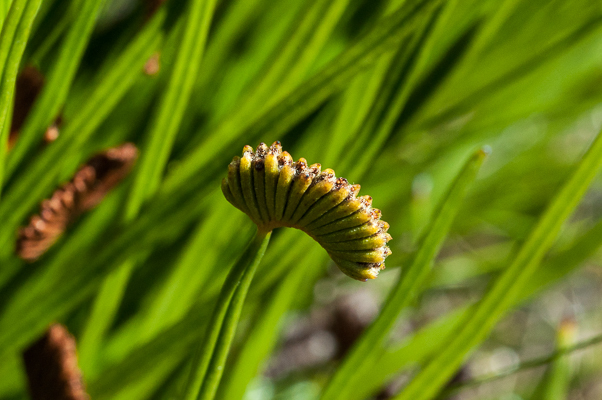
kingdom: Plantae
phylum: Tracheophyta
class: Polypodiopsida
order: Schizaeales
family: Schizaeaceae
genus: Schizaea
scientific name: Schizaea pectinata
